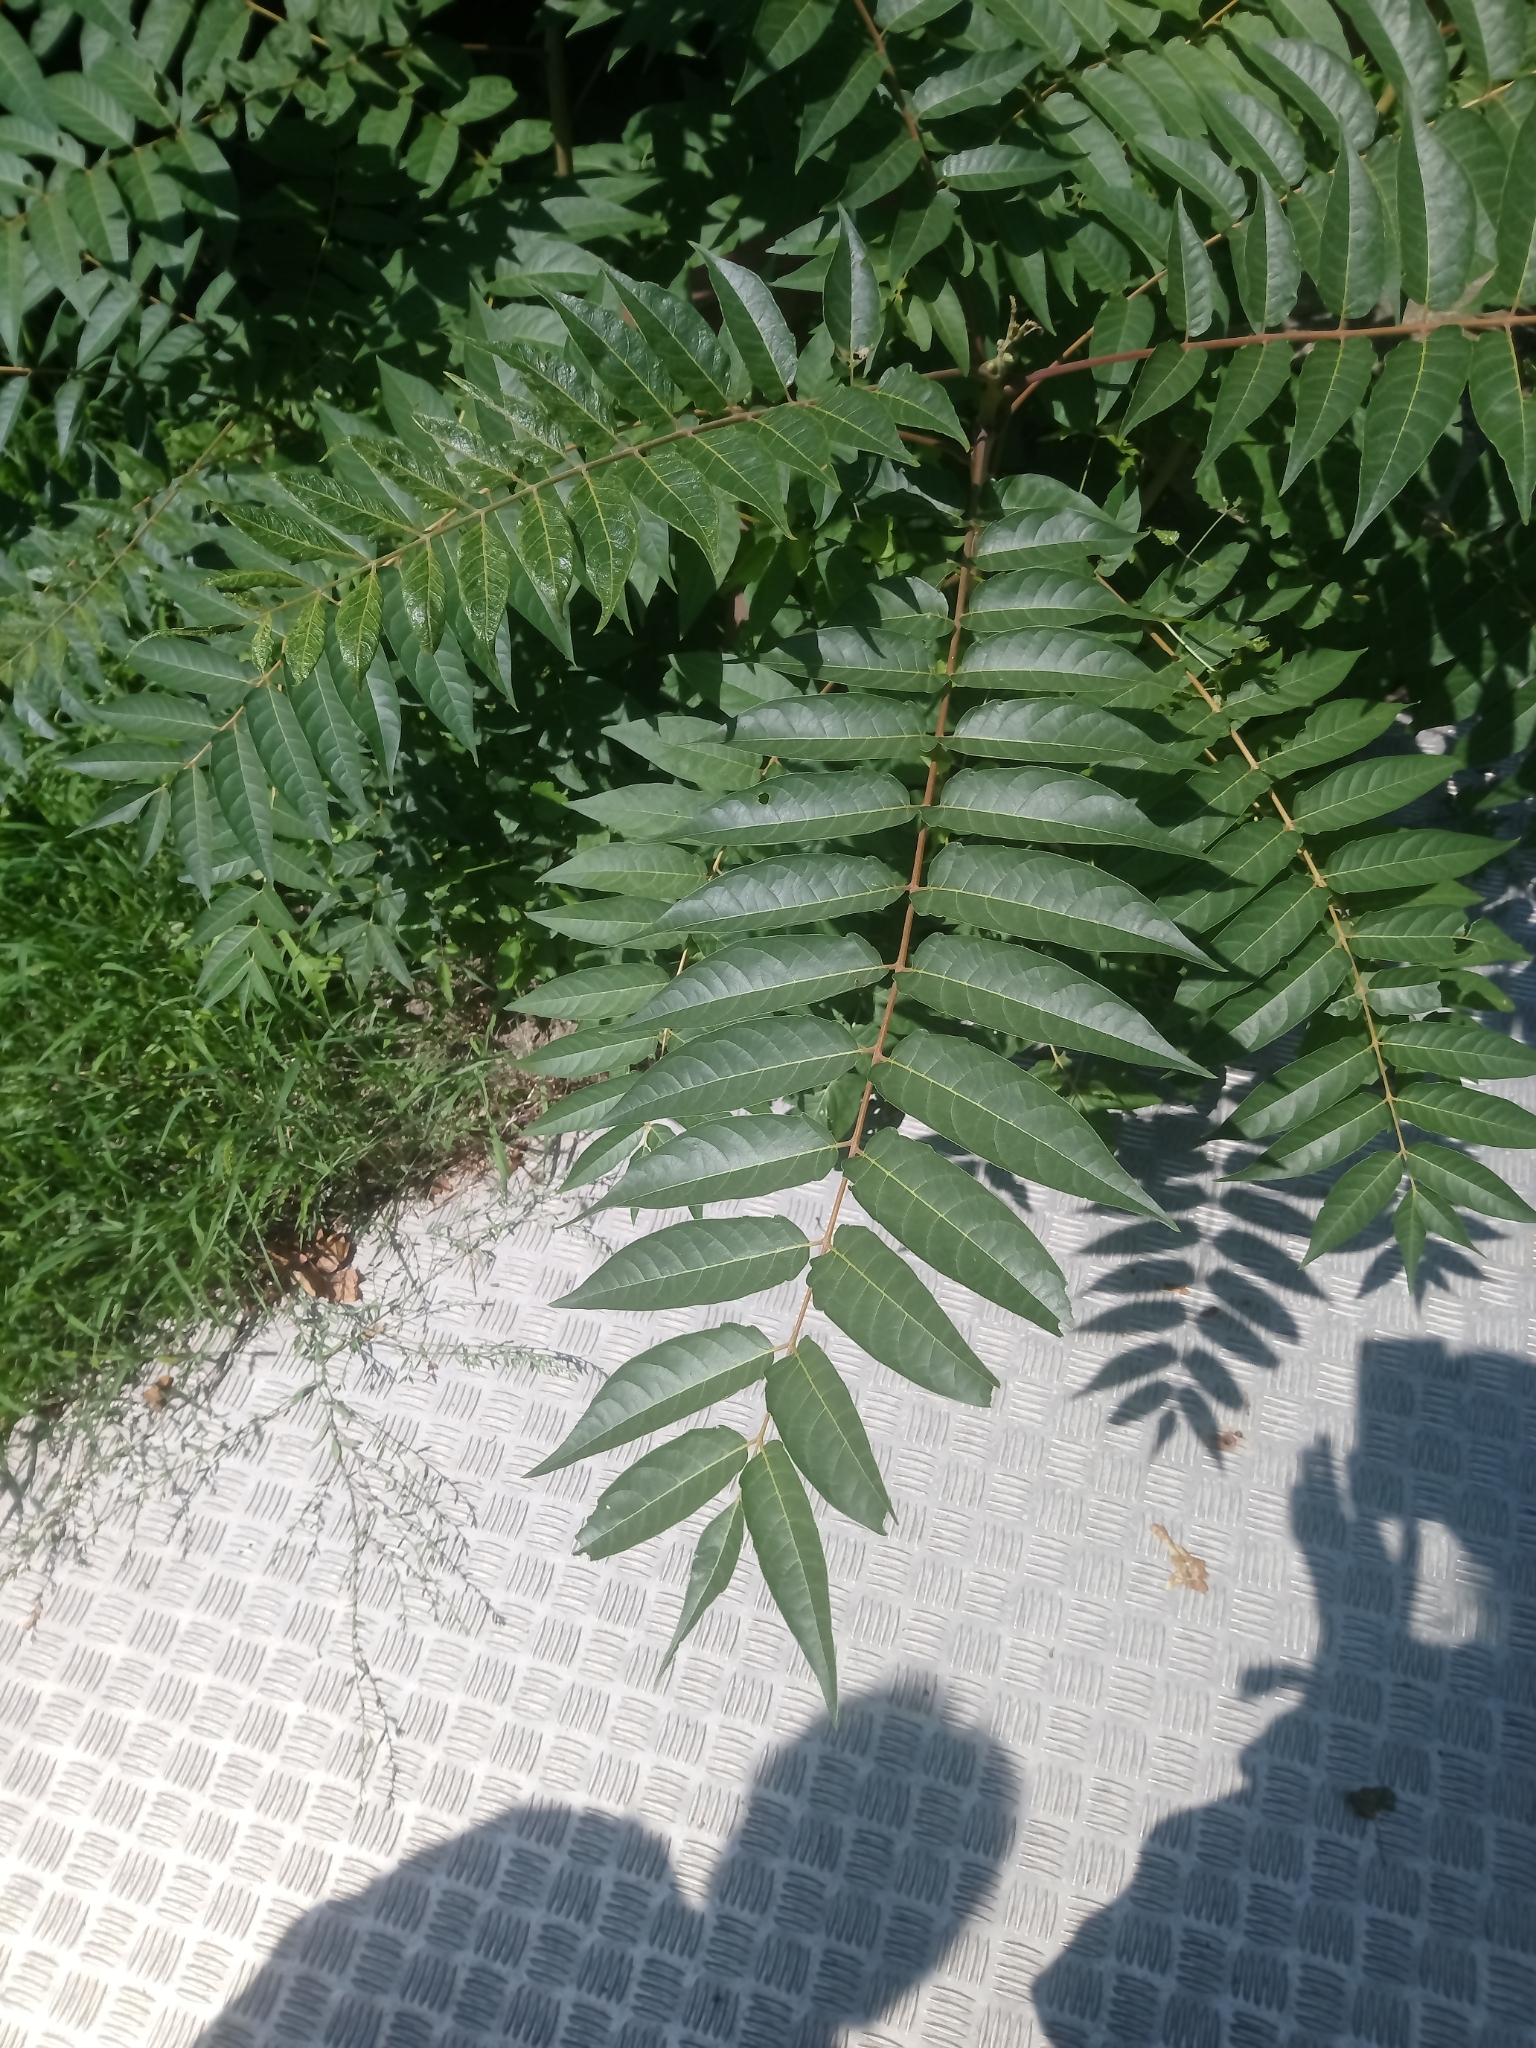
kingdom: Plantae
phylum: Tracheophyta
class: Magnoliopsida
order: Sapindales
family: Simaroubaceae
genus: Ailanthus
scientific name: Ailanthus altissima
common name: Tree-of-heaven
